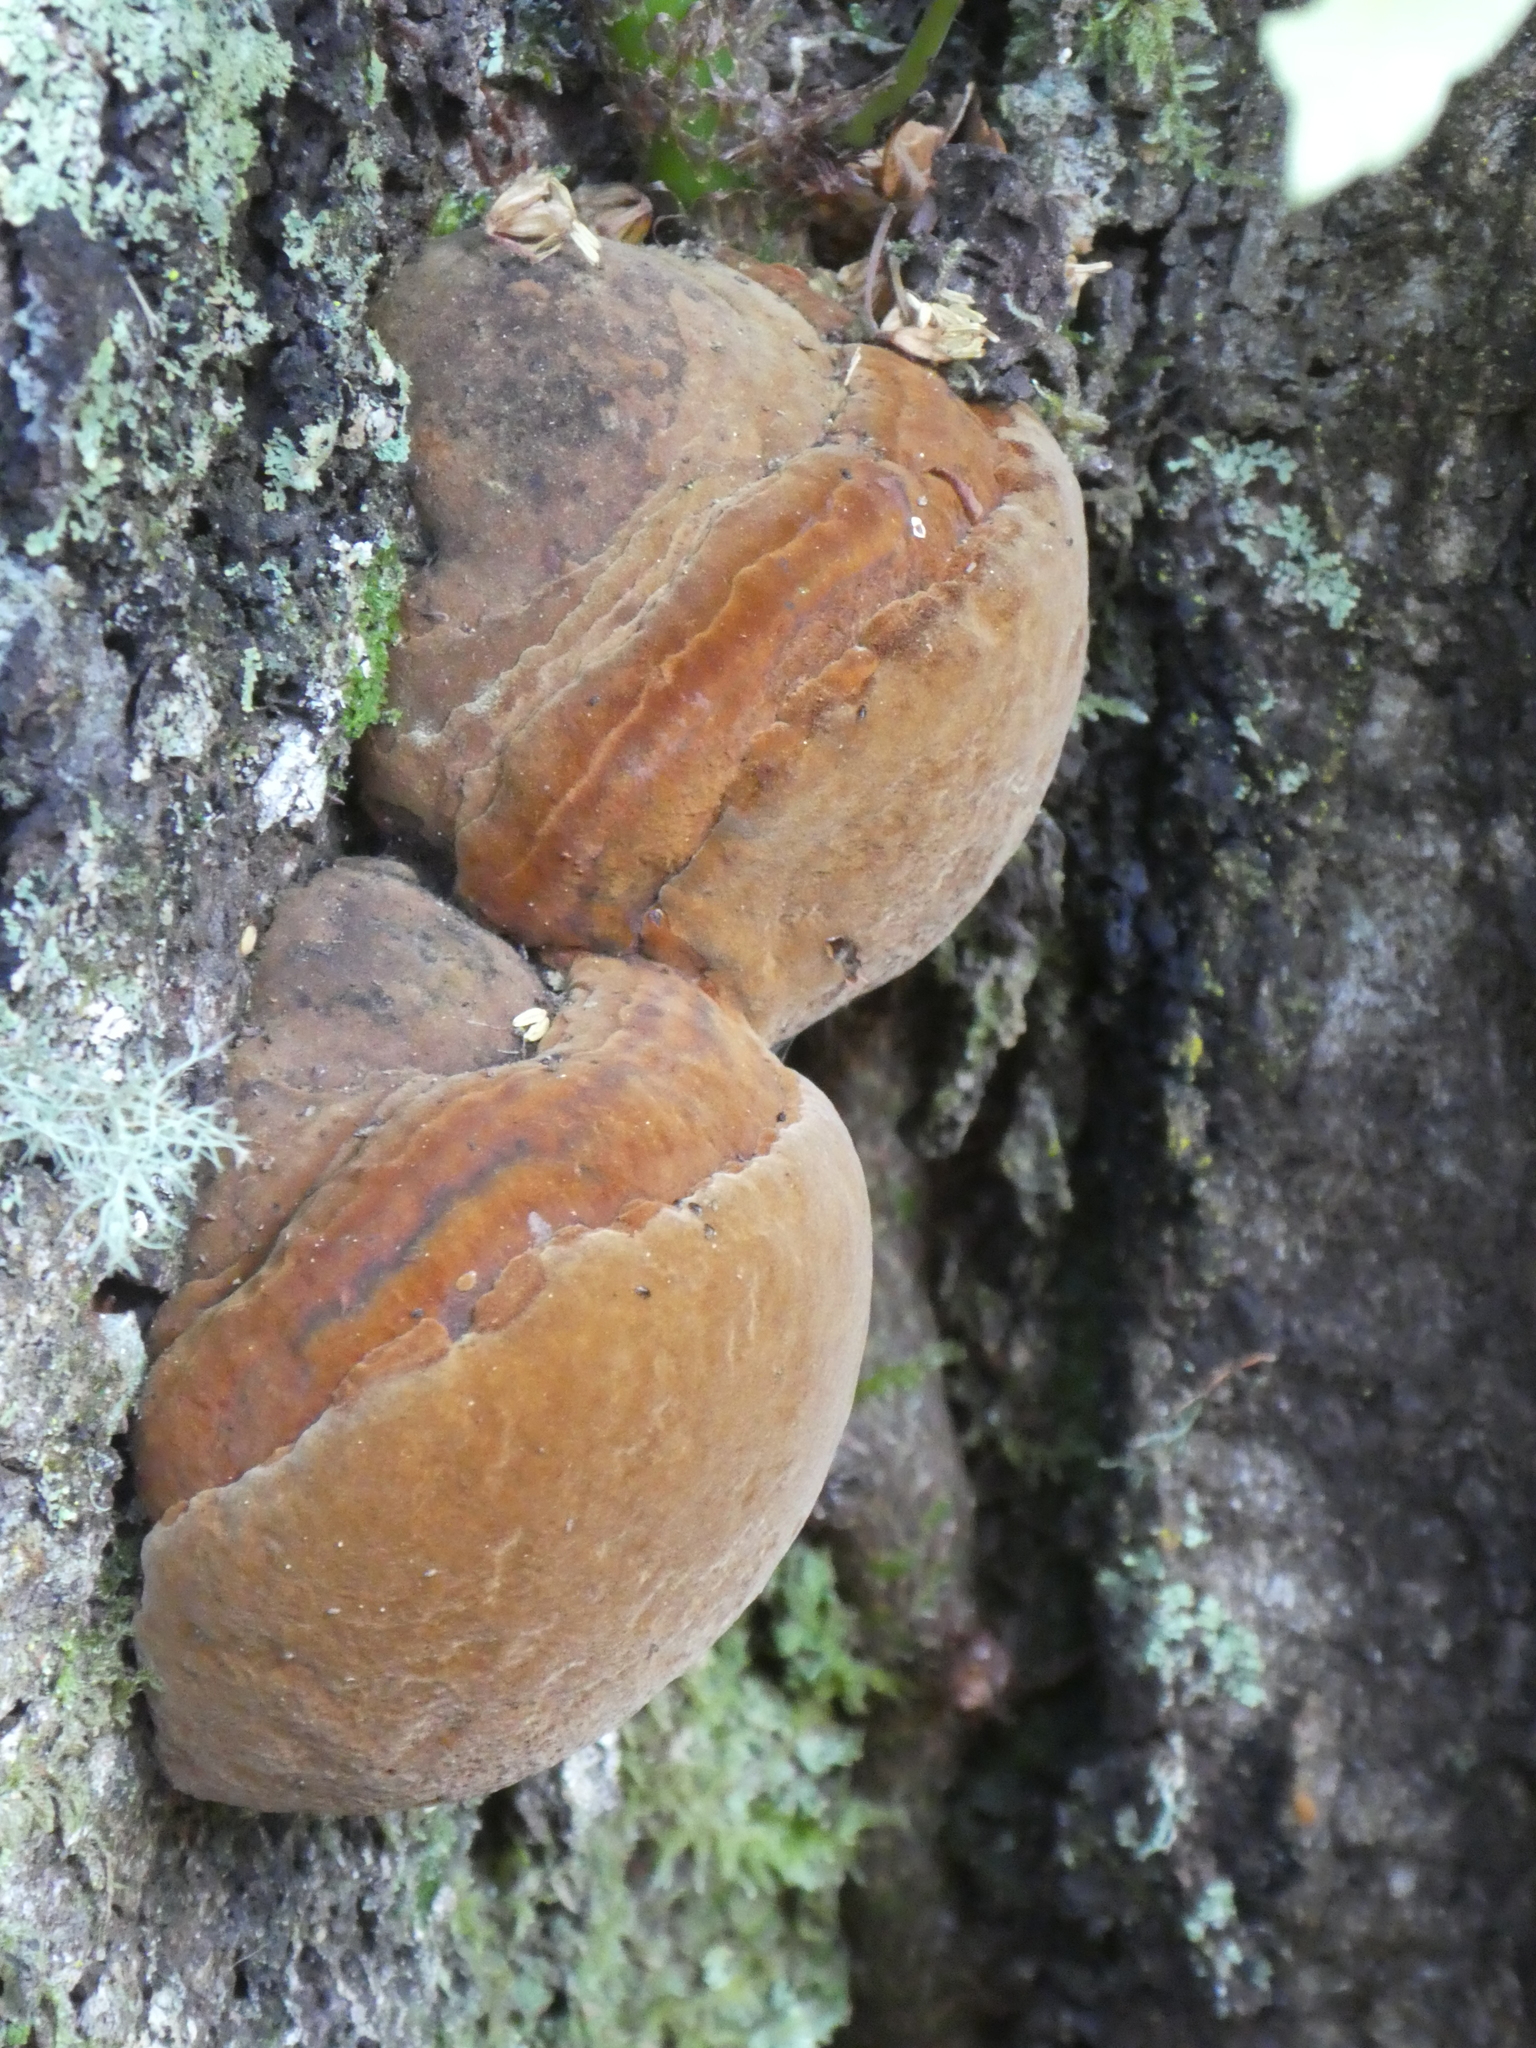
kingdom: Fungi
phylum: Basidiomycota
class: Agaricomycetes
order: Hymenochaetales
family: Hymenochaetaceae
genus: Fomitiporia
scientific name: Fomitiporia
